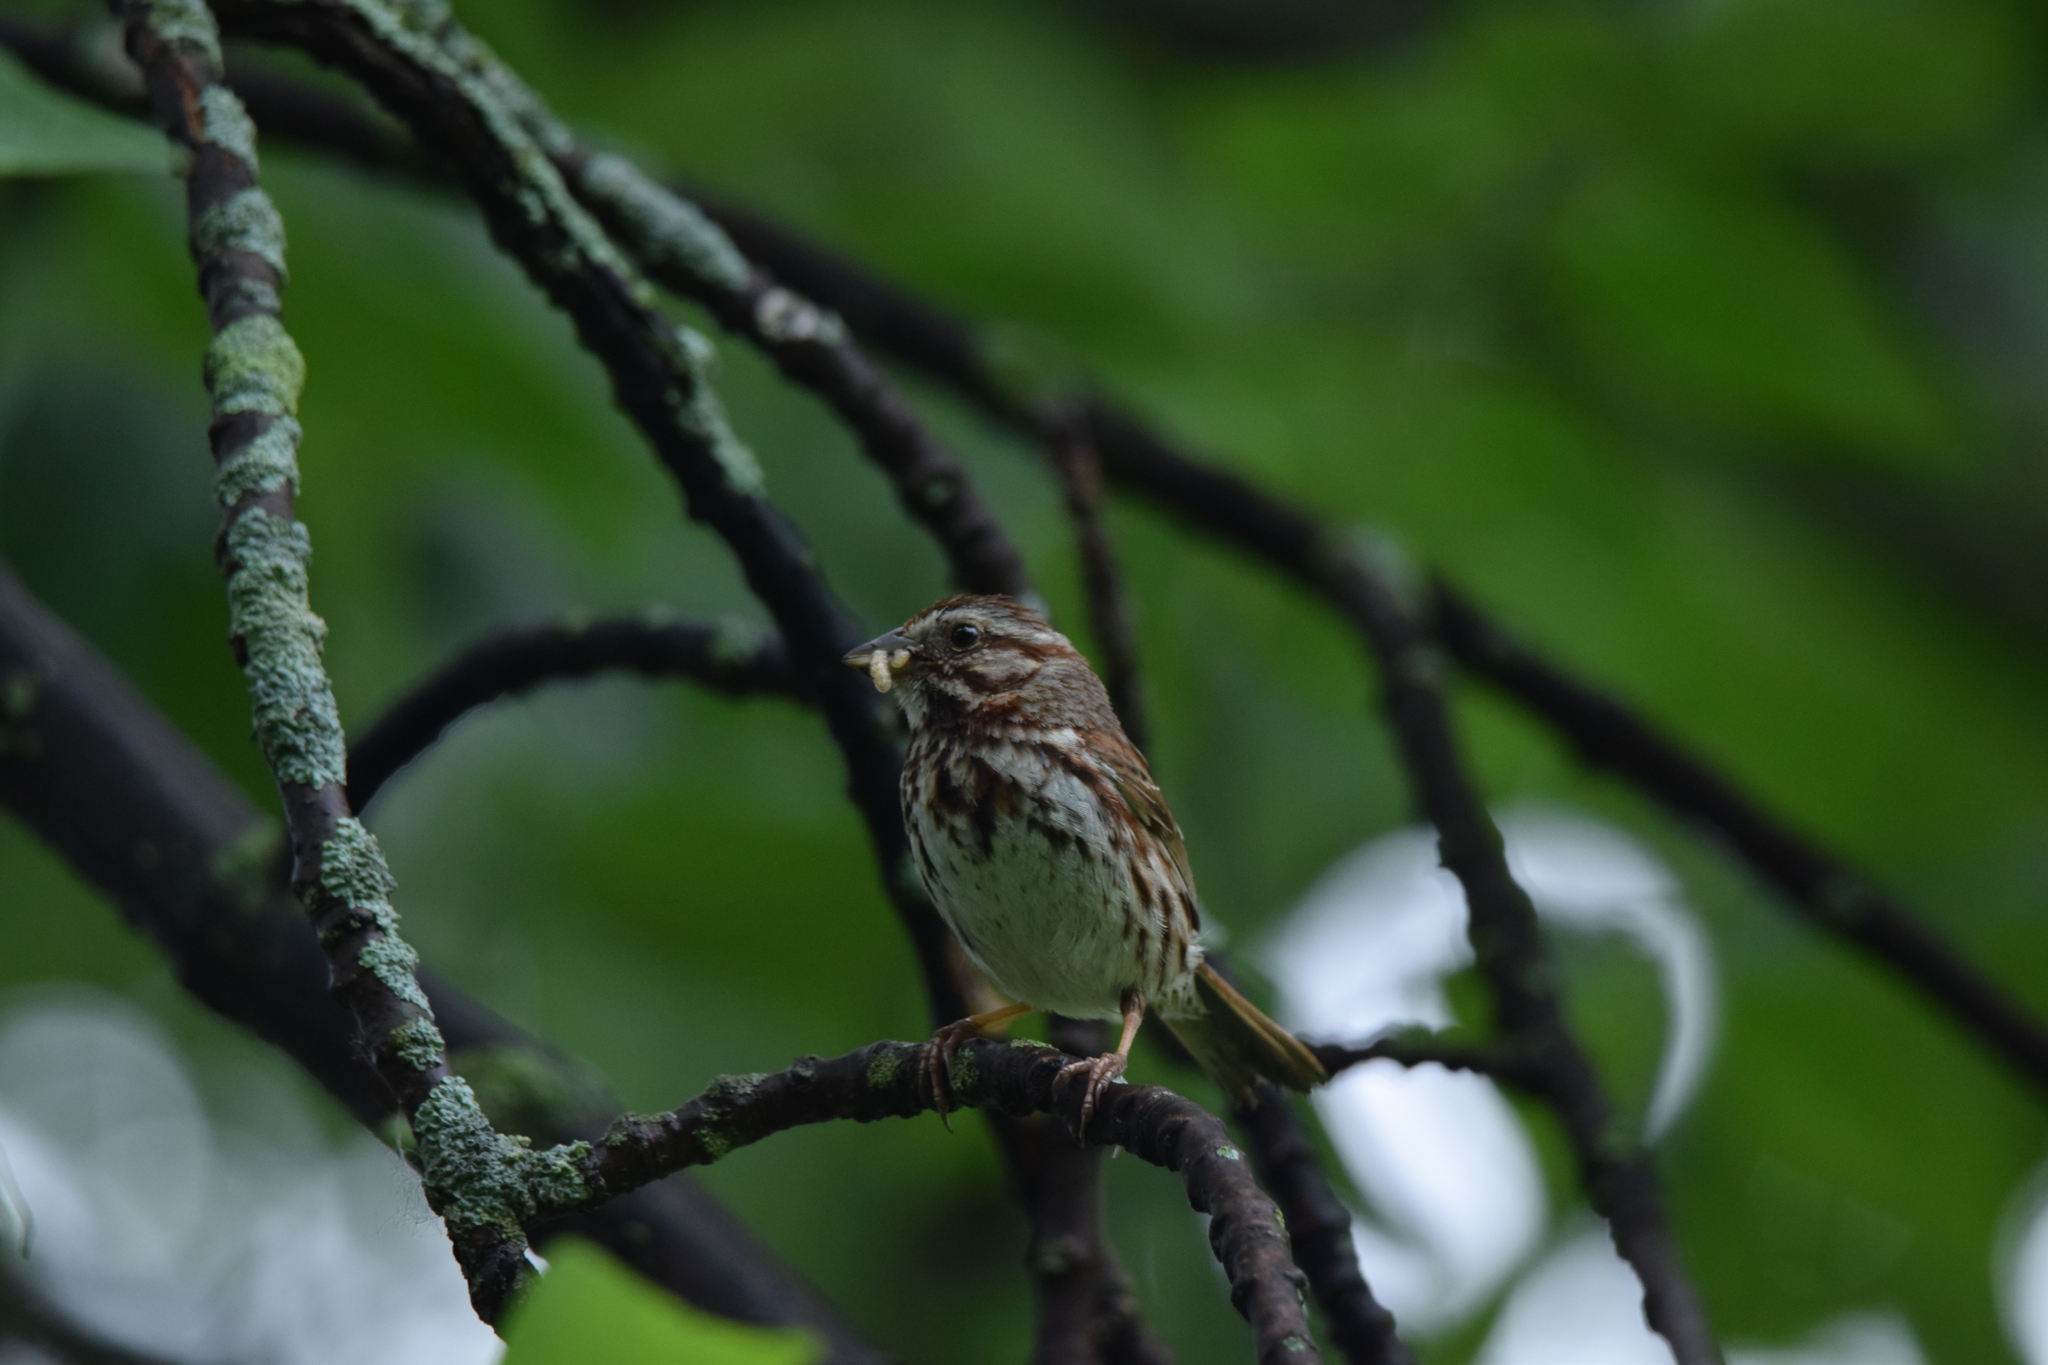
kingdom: Animalia
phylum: Chordata
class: Aves
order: Passeriformes
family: Passerellidae
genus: Melospiza
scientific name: Melospiza melodia
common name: Song sparrow
